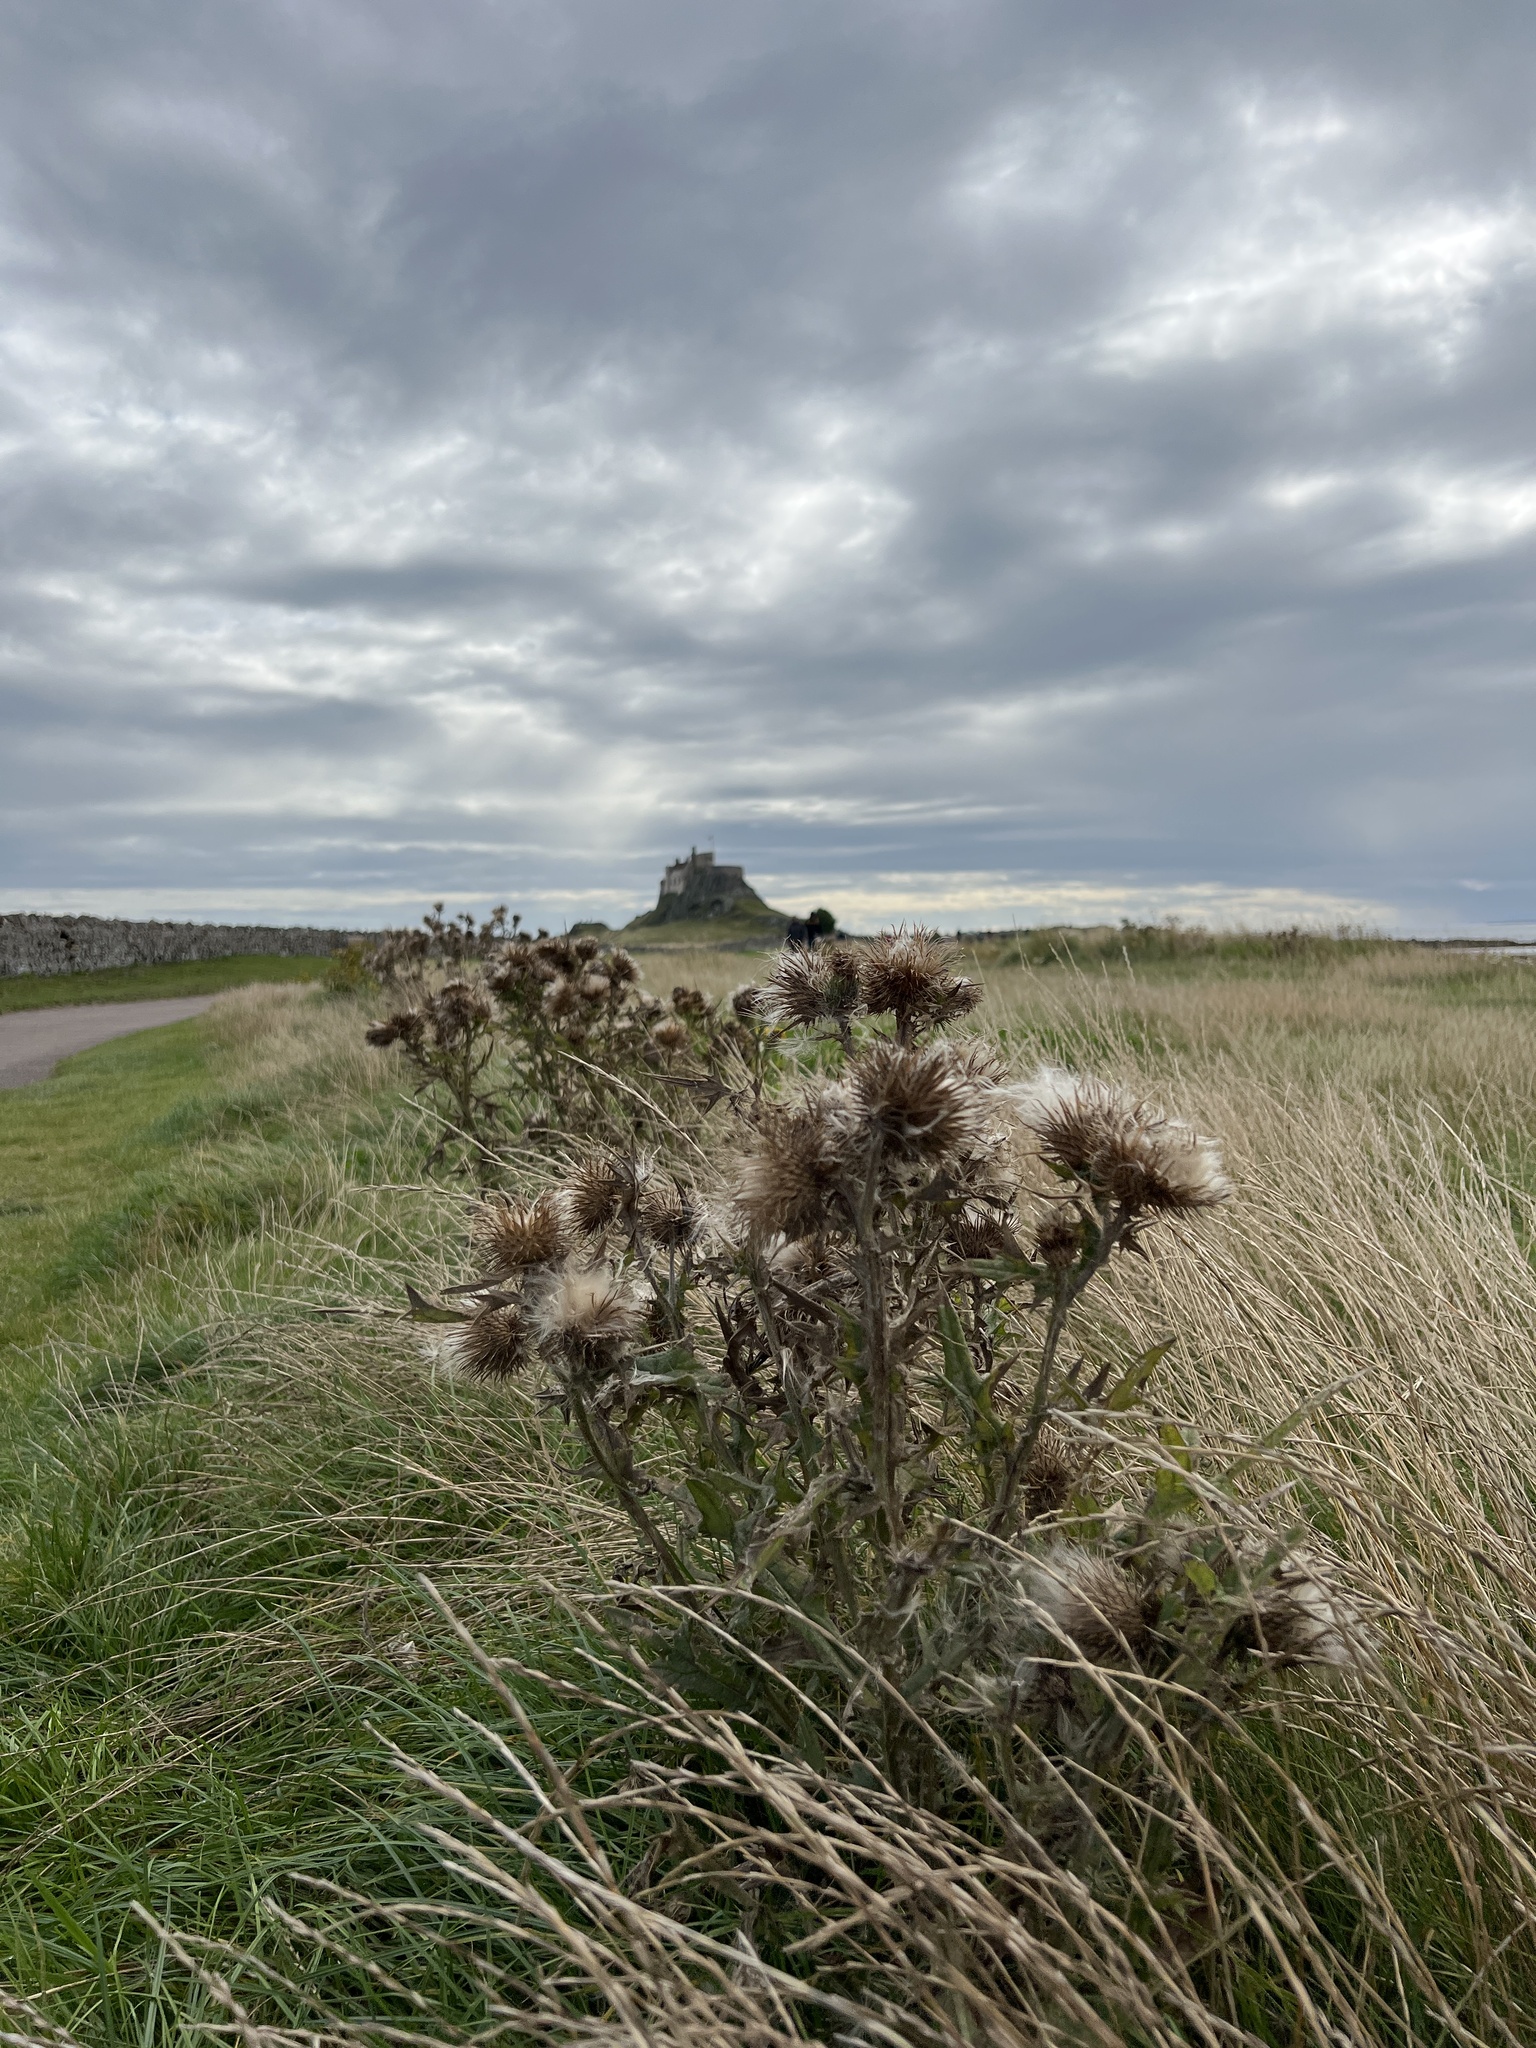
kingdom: Plantae
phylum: Tracheophyta
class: Magnoliopsida
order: Asterales
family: Asteraceae
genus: Cirsium
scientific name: Cirsium vulgare
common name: Bull thistle
